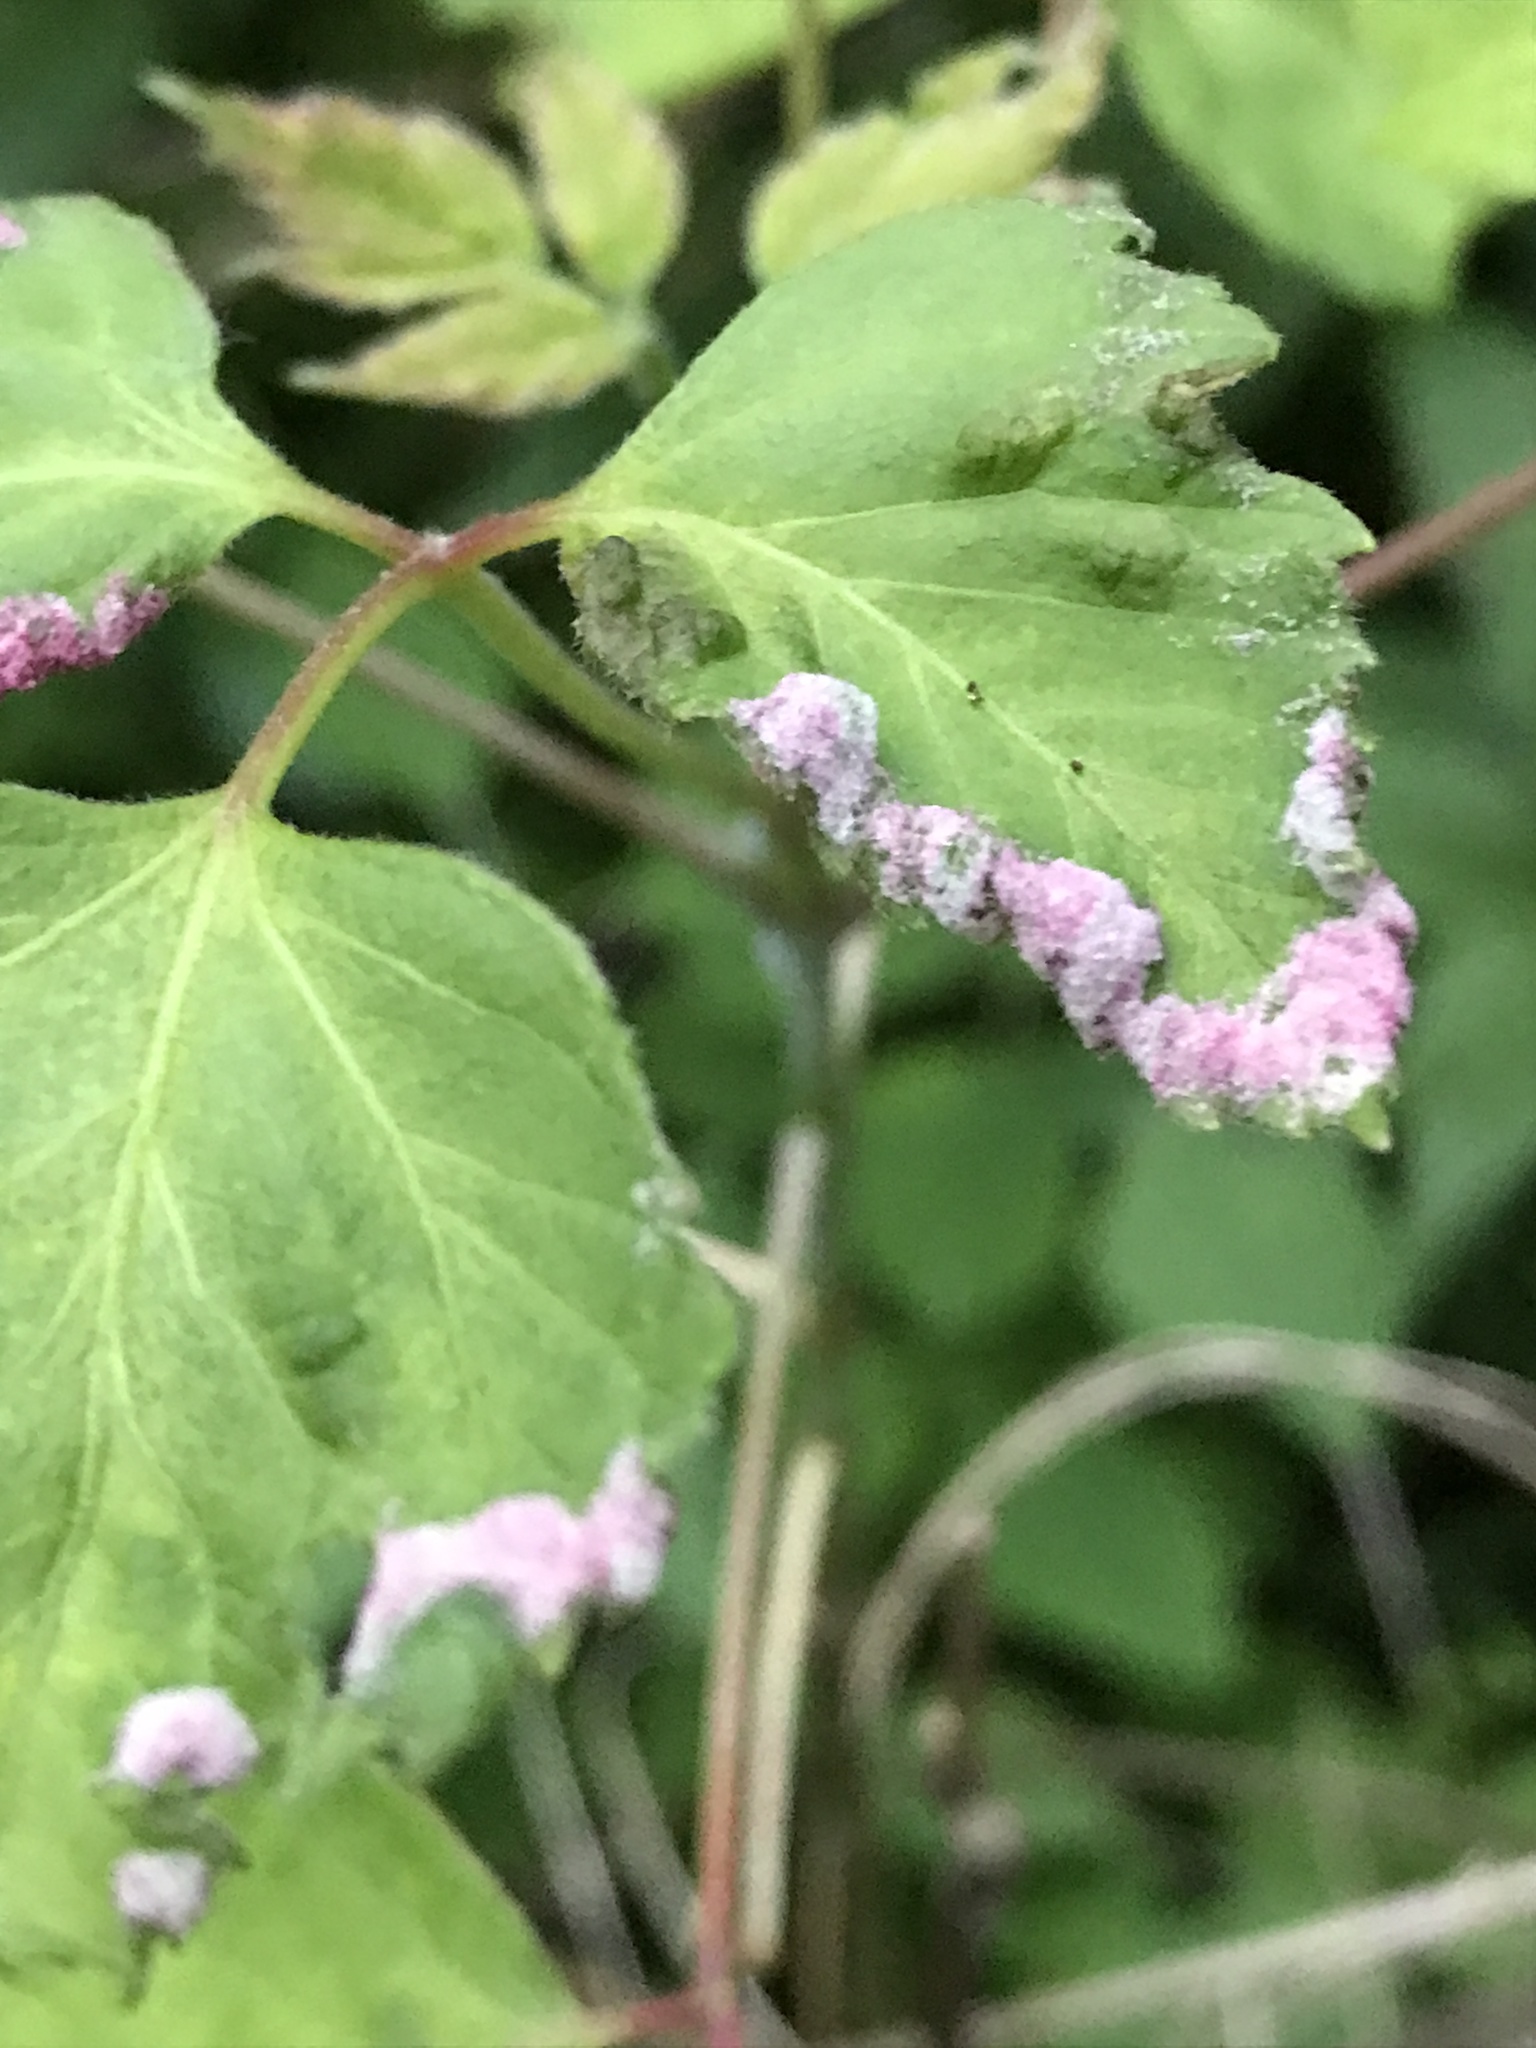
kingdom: Animalia
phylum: Arthropoda
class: Arachnida
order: Trombidiformes
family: Eriophyidae
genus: Aceria
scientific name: Aceria
